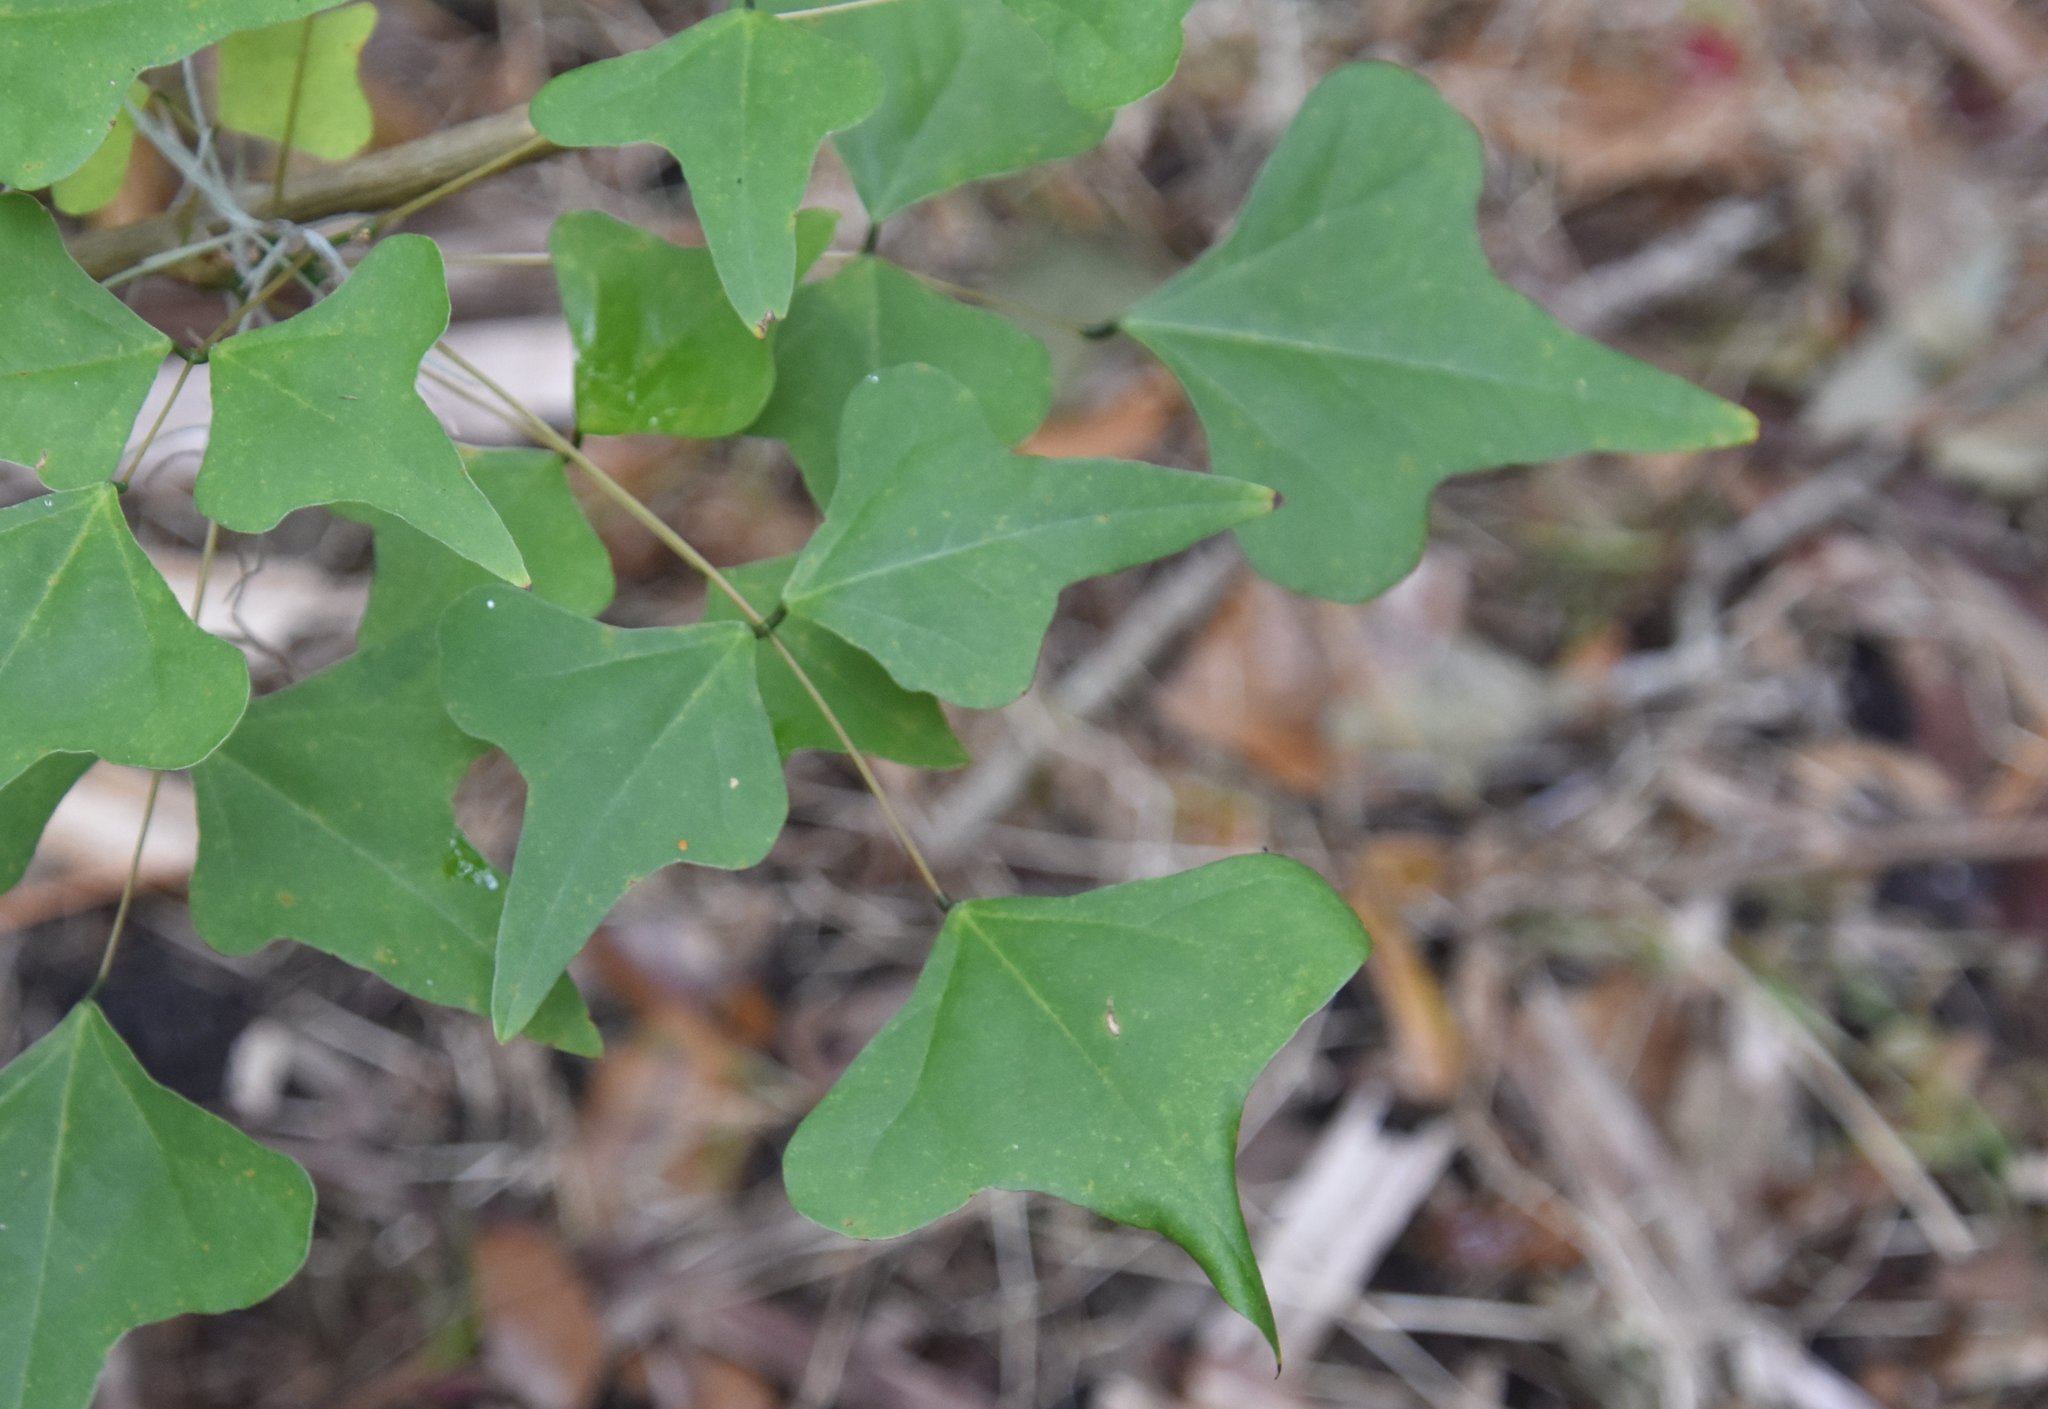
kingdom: Plantae
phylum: Tracheophyta
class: Magnoliopsida
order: Fabales
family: Fabaceae
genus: Erythrina
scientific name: Erythrina herbacea
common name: Coral-bean
